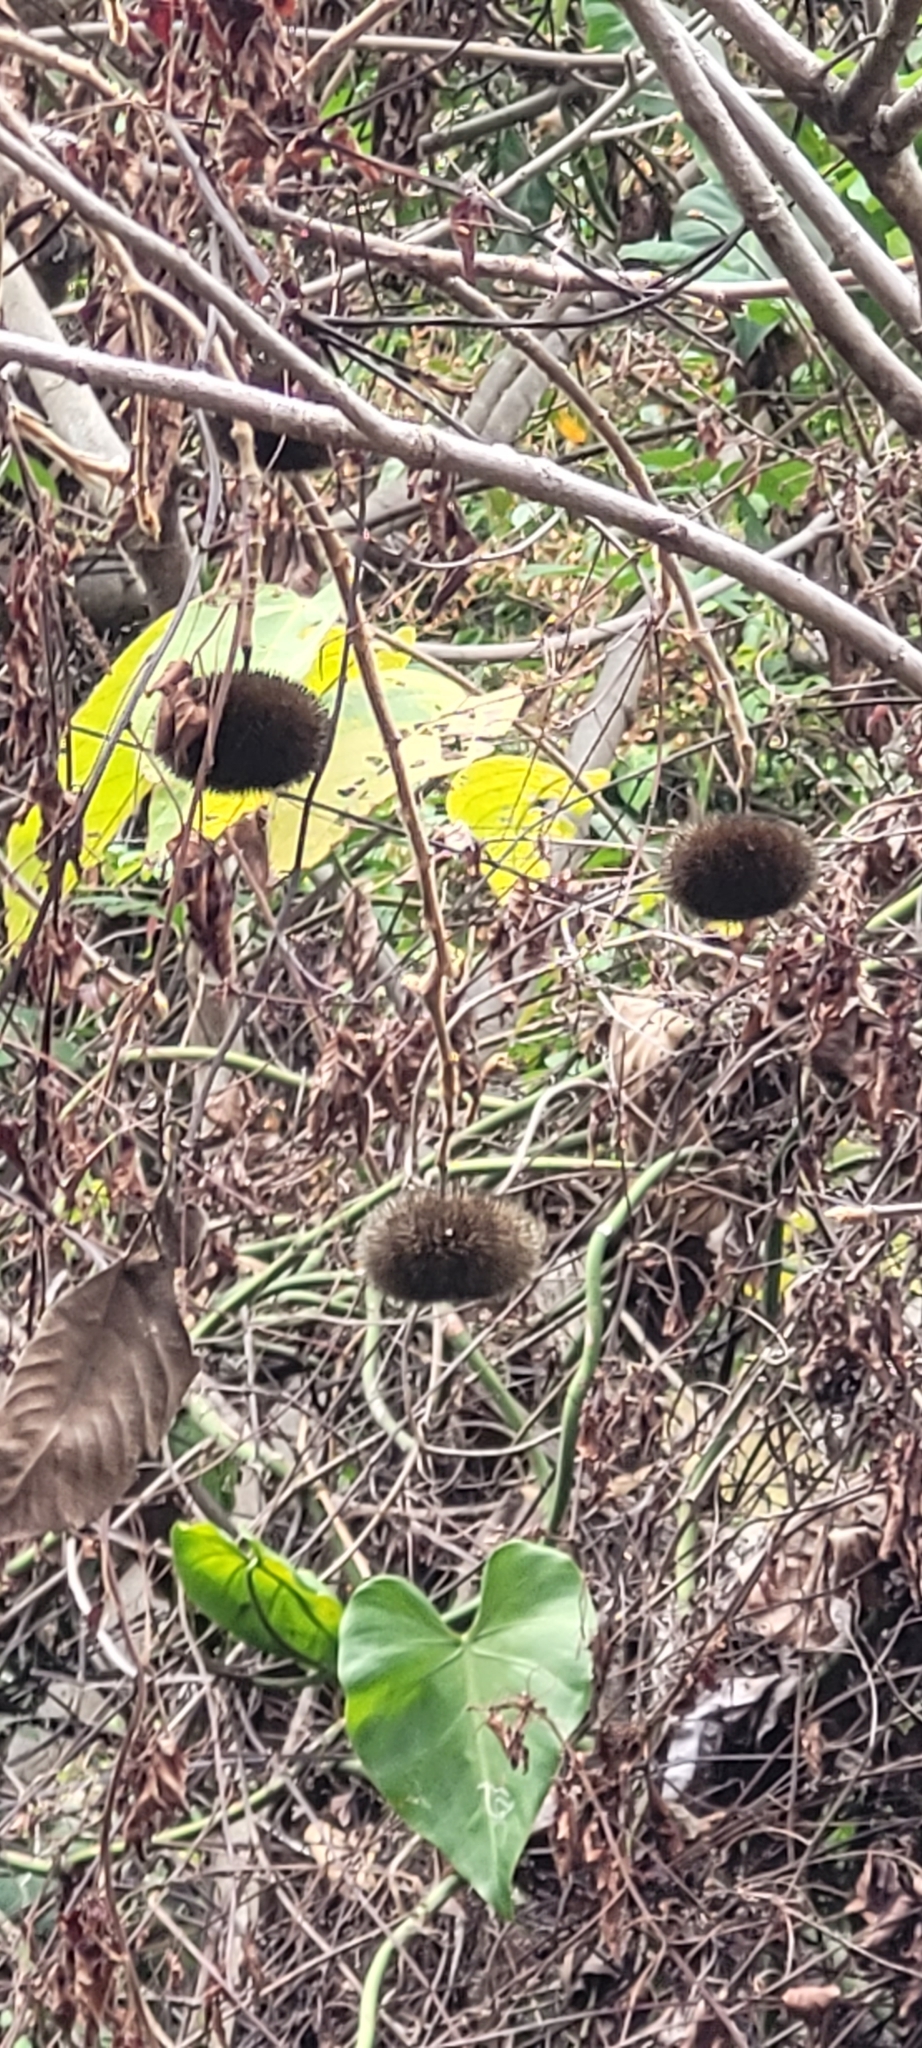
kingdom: Plantae
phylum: Tracheophyta
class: Magnoliopsida
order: Malvales
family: Malvaceae
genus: Apeiba
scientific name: Apeiba tibourbou
